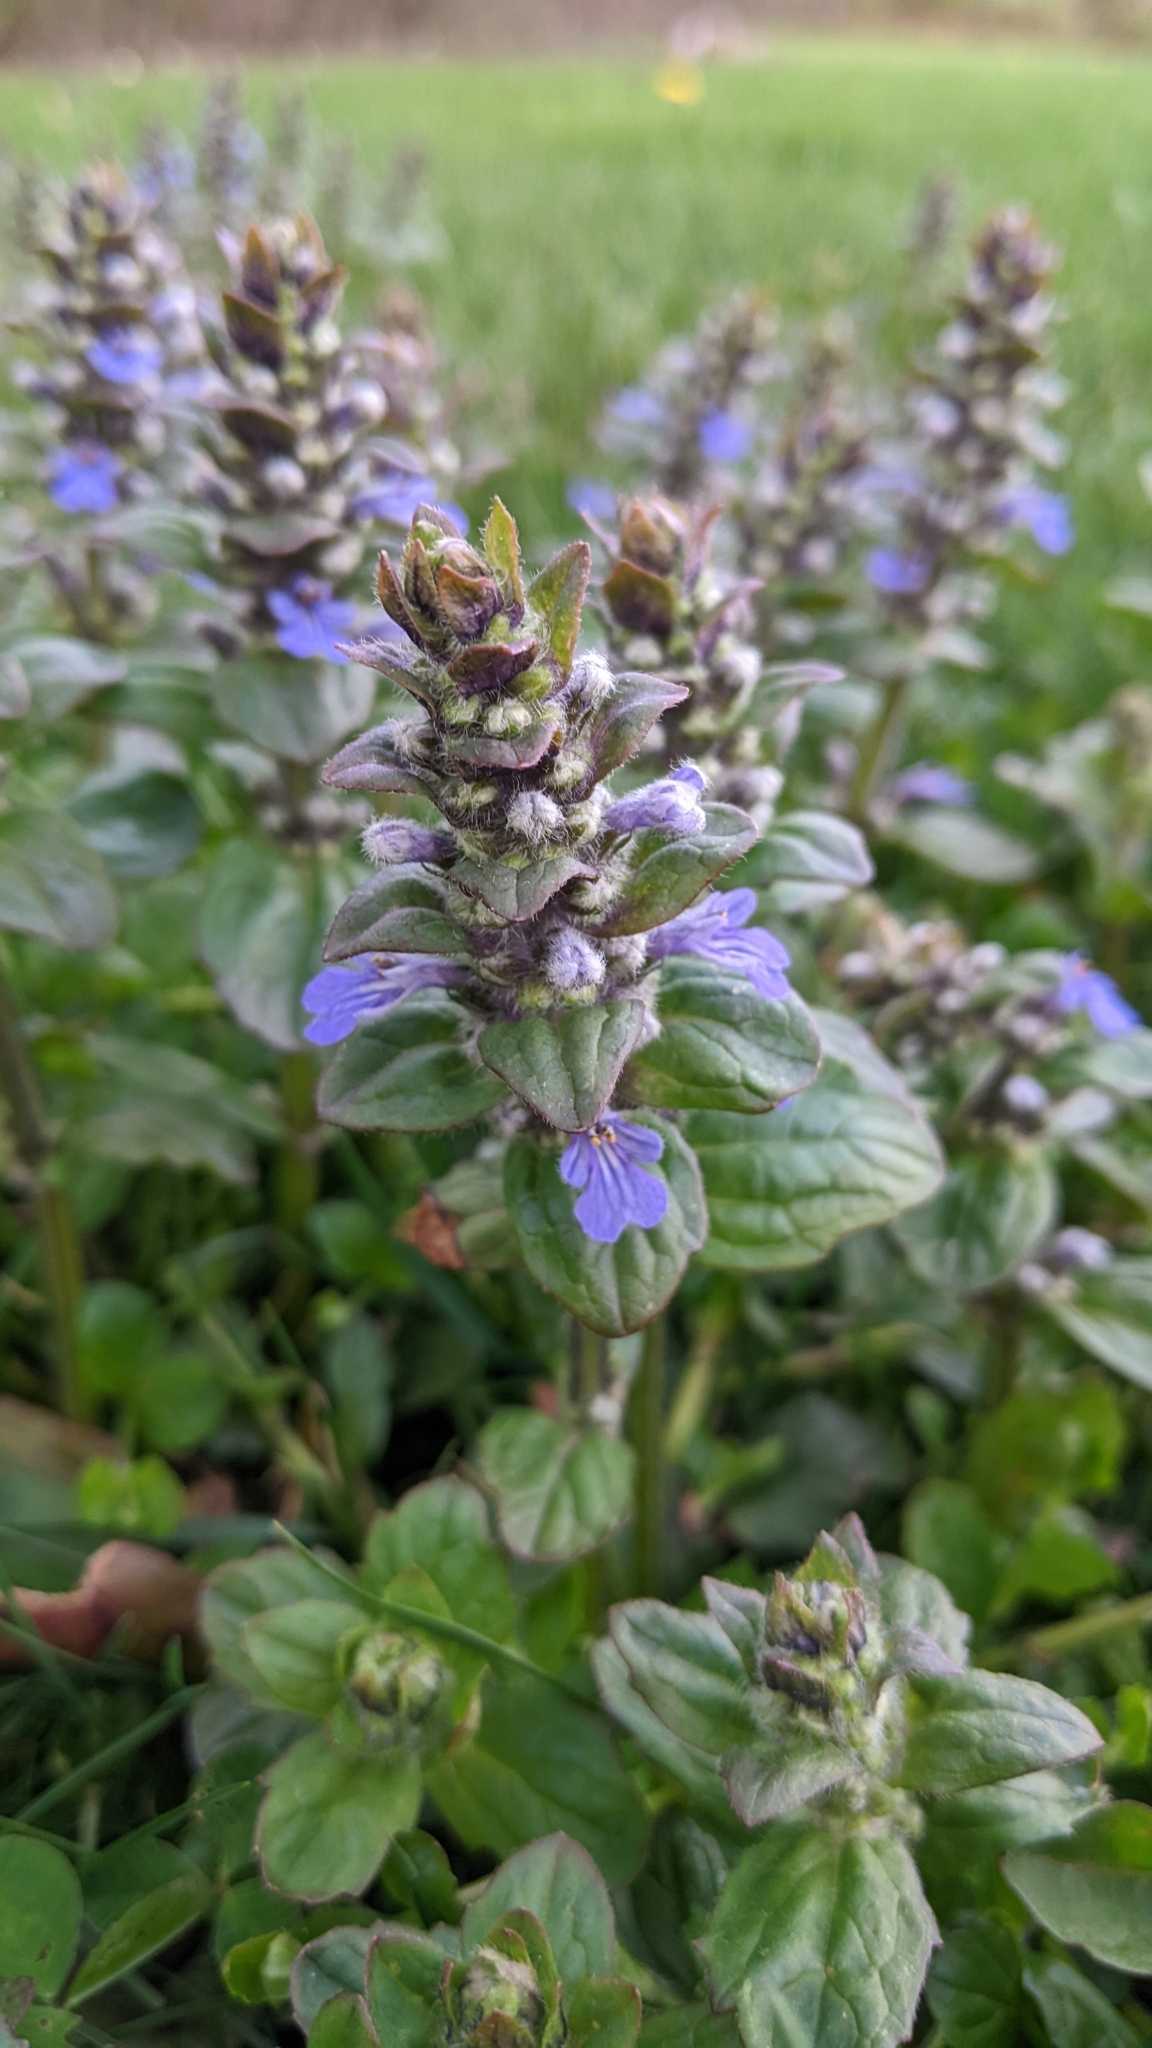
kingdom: Plantae
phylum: Tracheophyta
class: Magnoliopsida
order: Lamiales
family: Lamiaceae
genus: Ajuga
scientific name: Ajuga reptans
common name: Bugle
